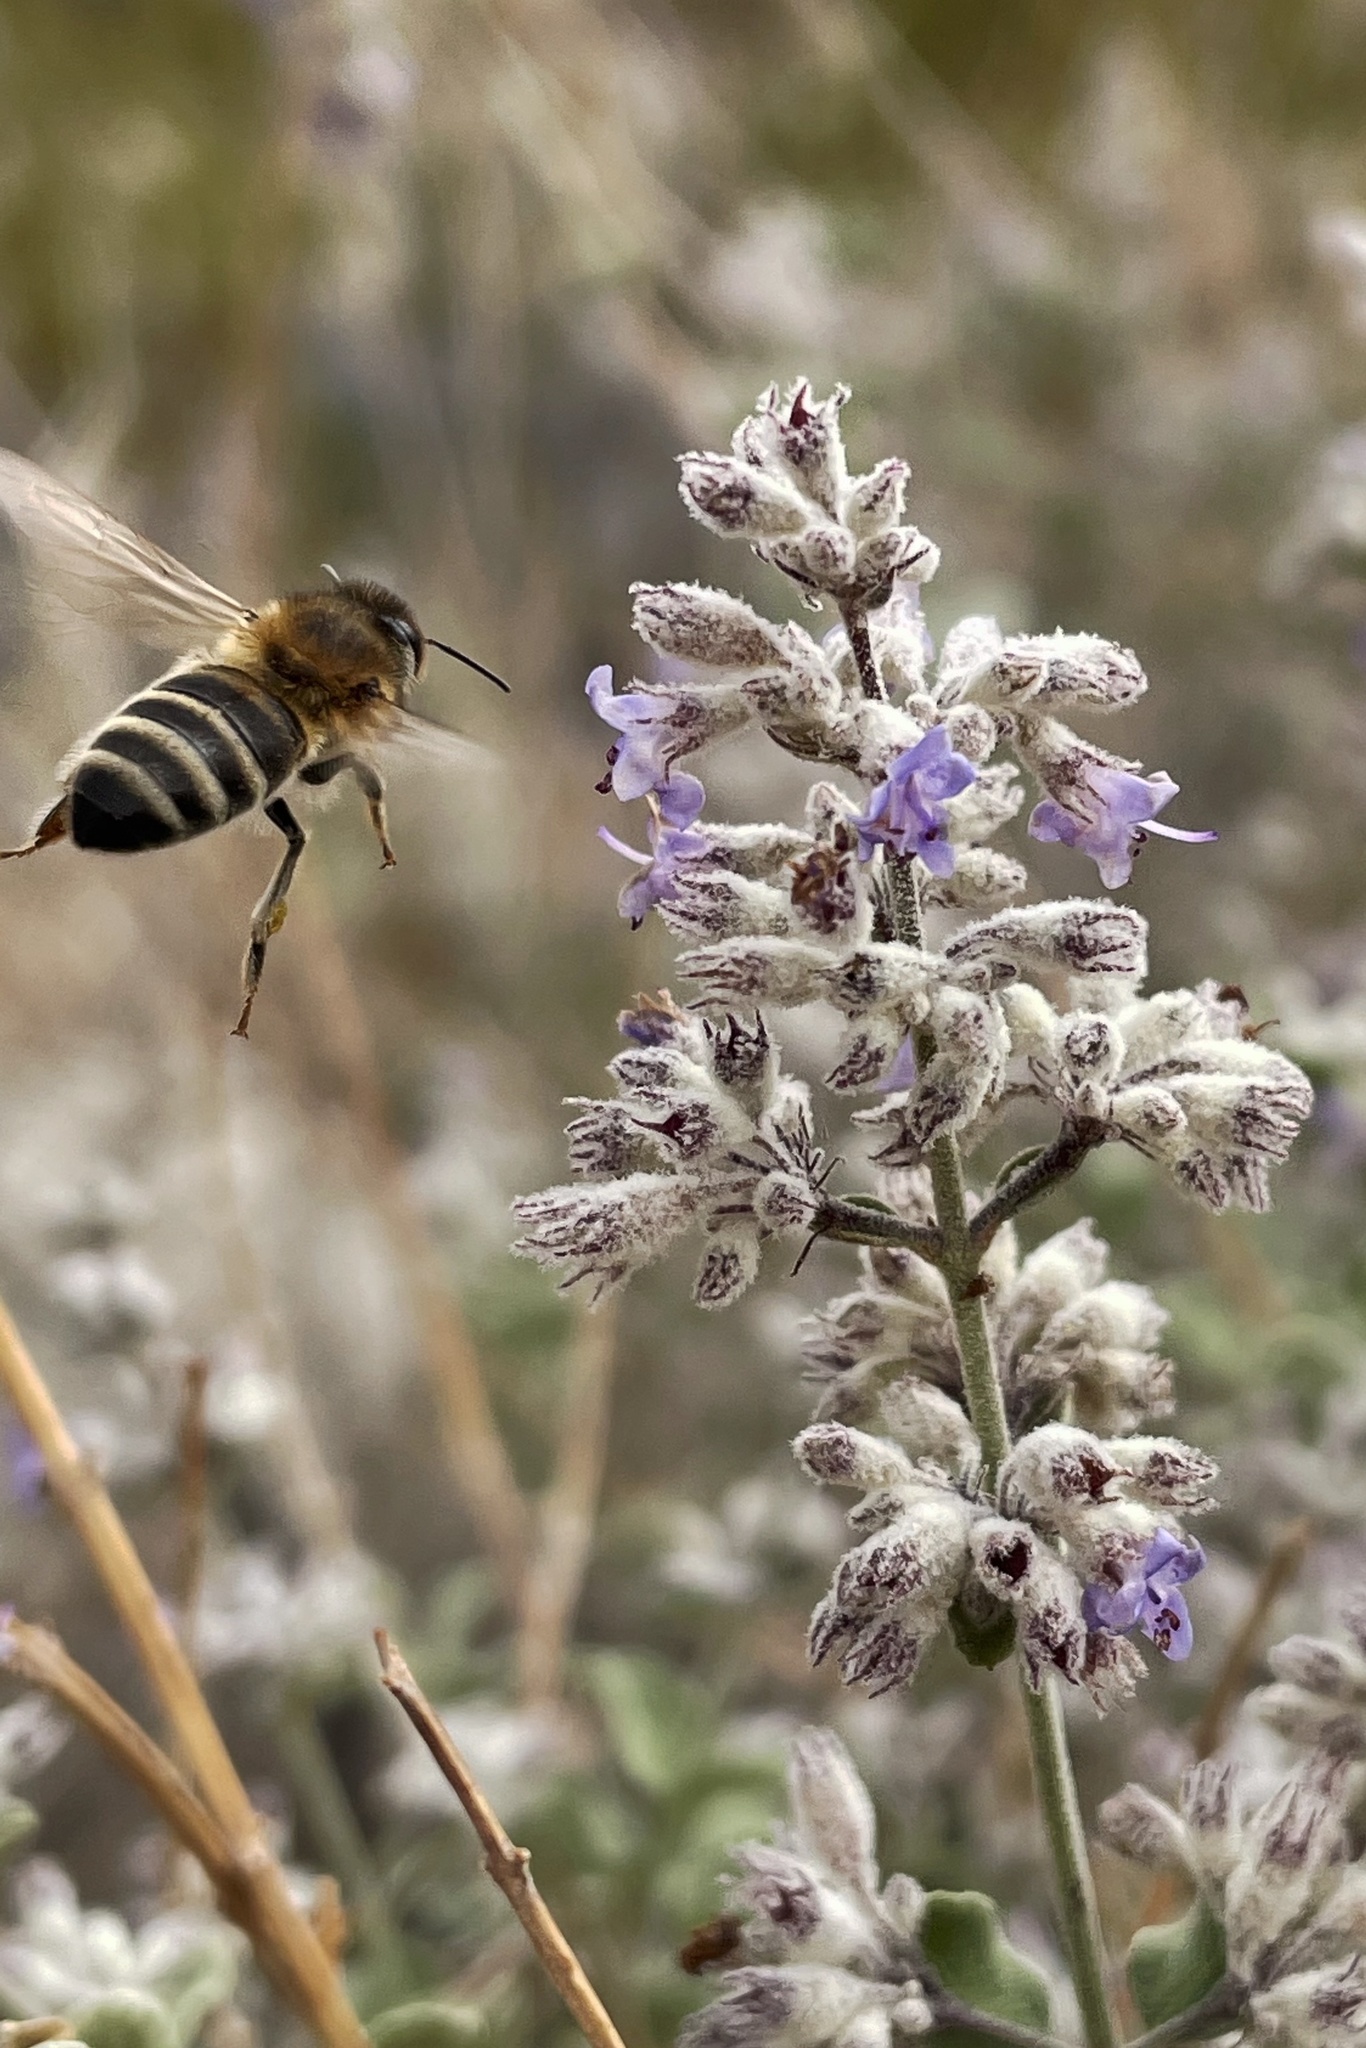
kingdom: Plantae
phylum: Tracheophyta
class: Magnoliopsida
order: Lamiales
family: Lamiaceae
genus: Condea
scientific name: Condea emoryi
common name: Chia
